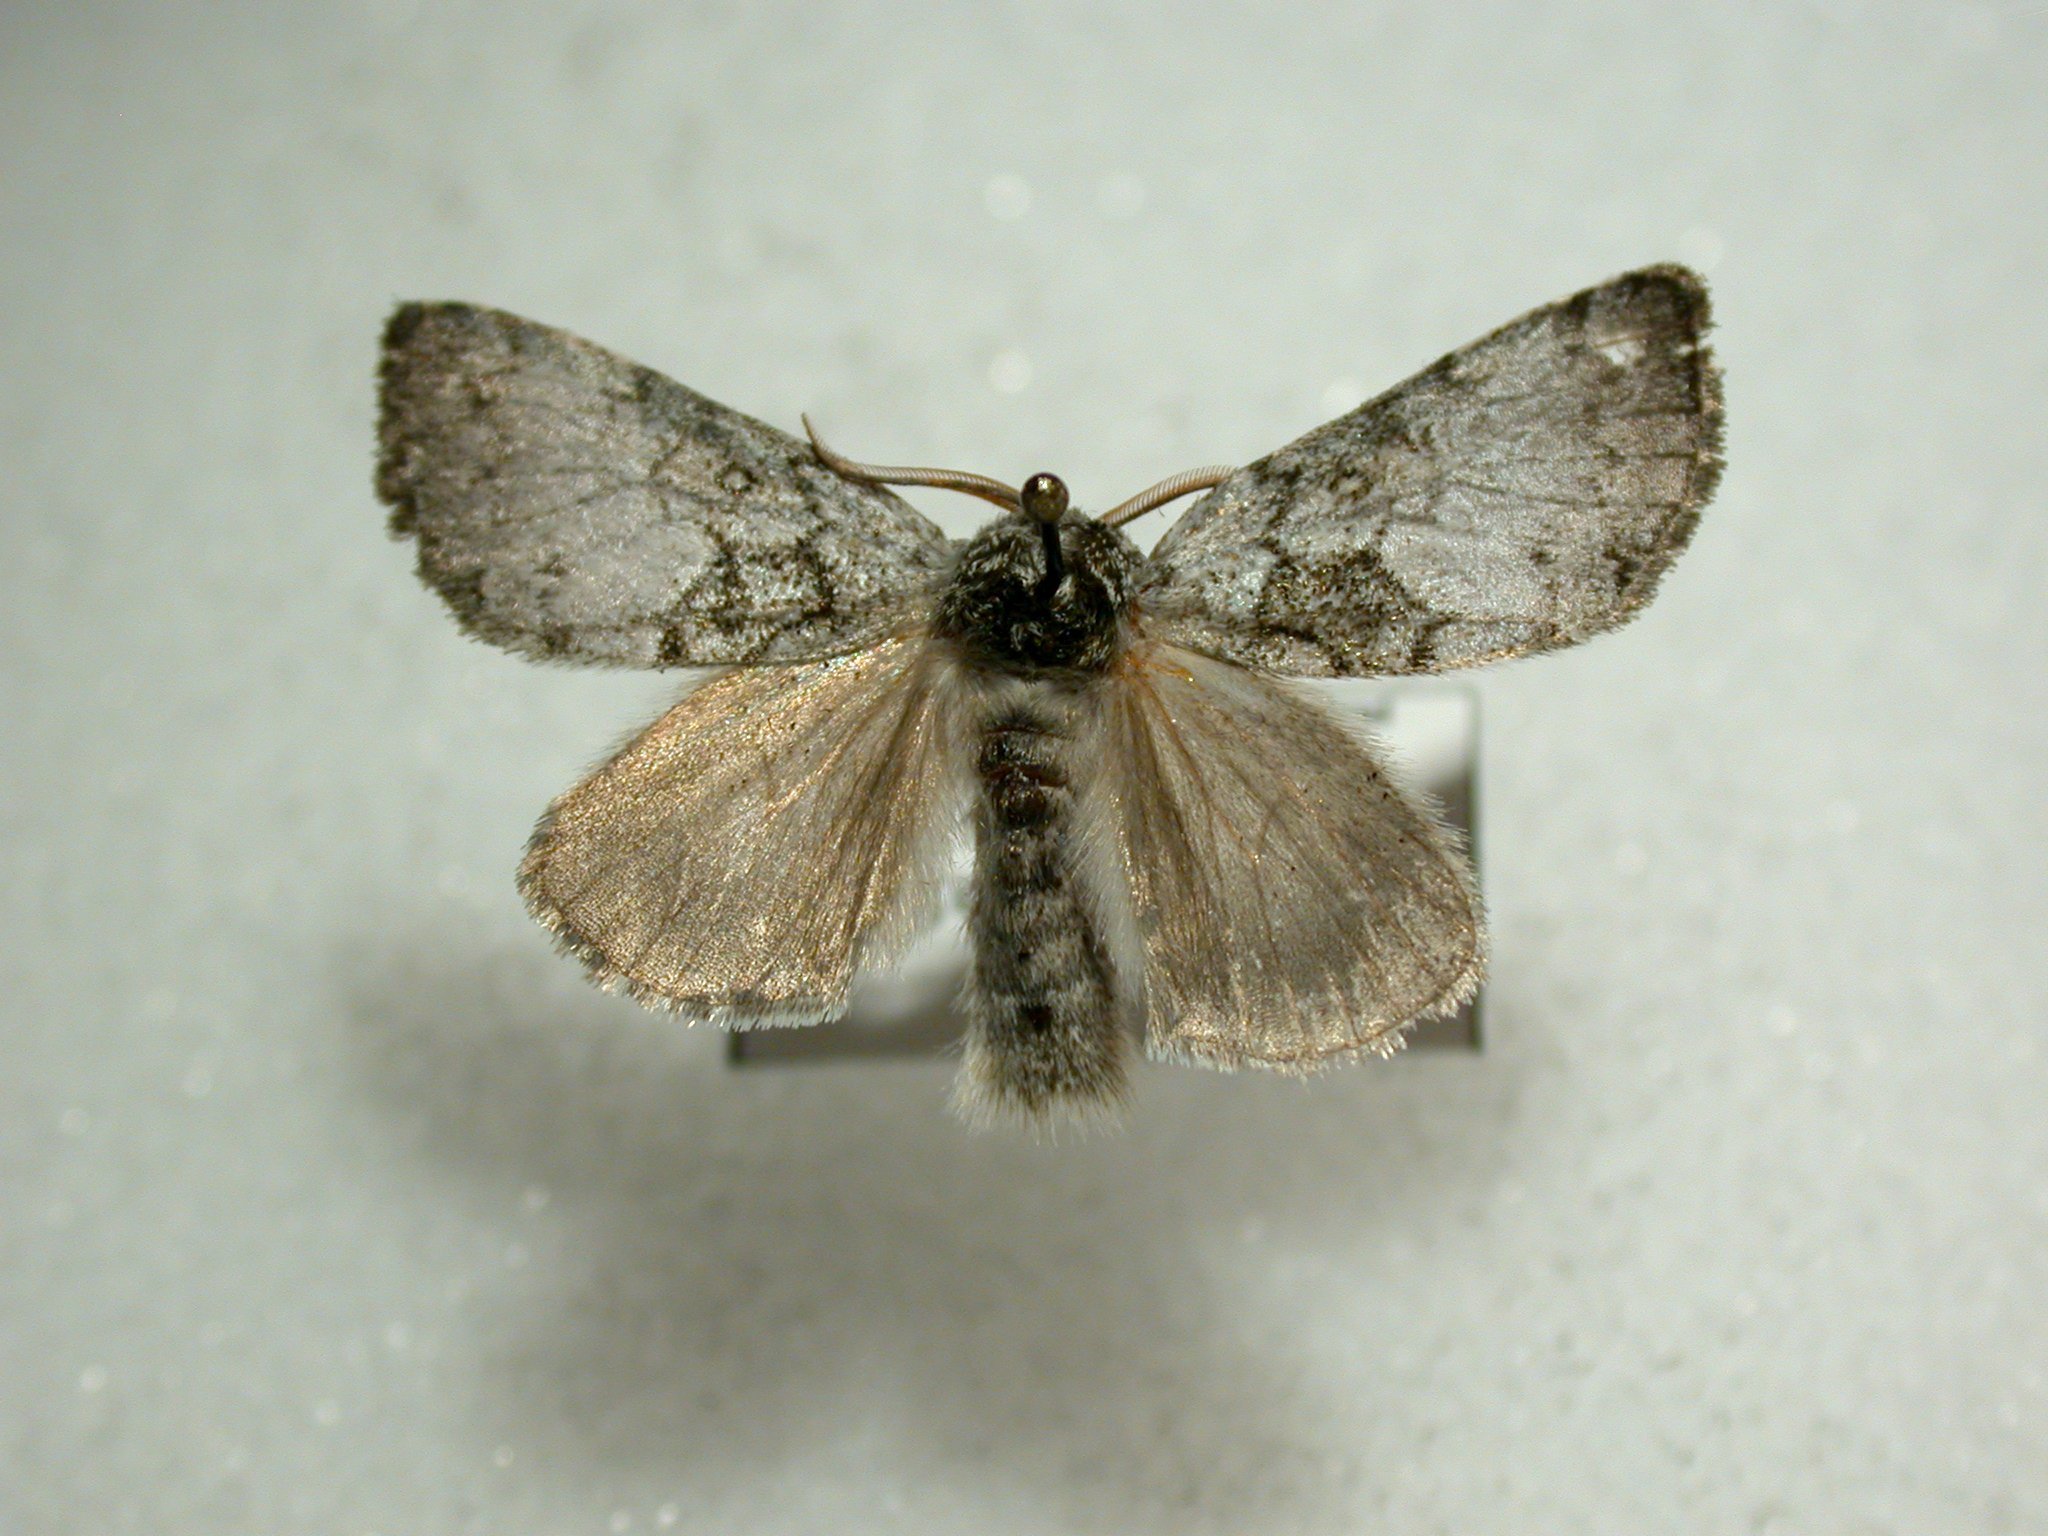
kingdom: Animalia
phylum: Arthropoda
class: Insecta
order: Lepidoptera
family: Noctuidae
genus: Colocasia
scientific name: Colocasia flavicornis
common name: Saddled yellowhorn
